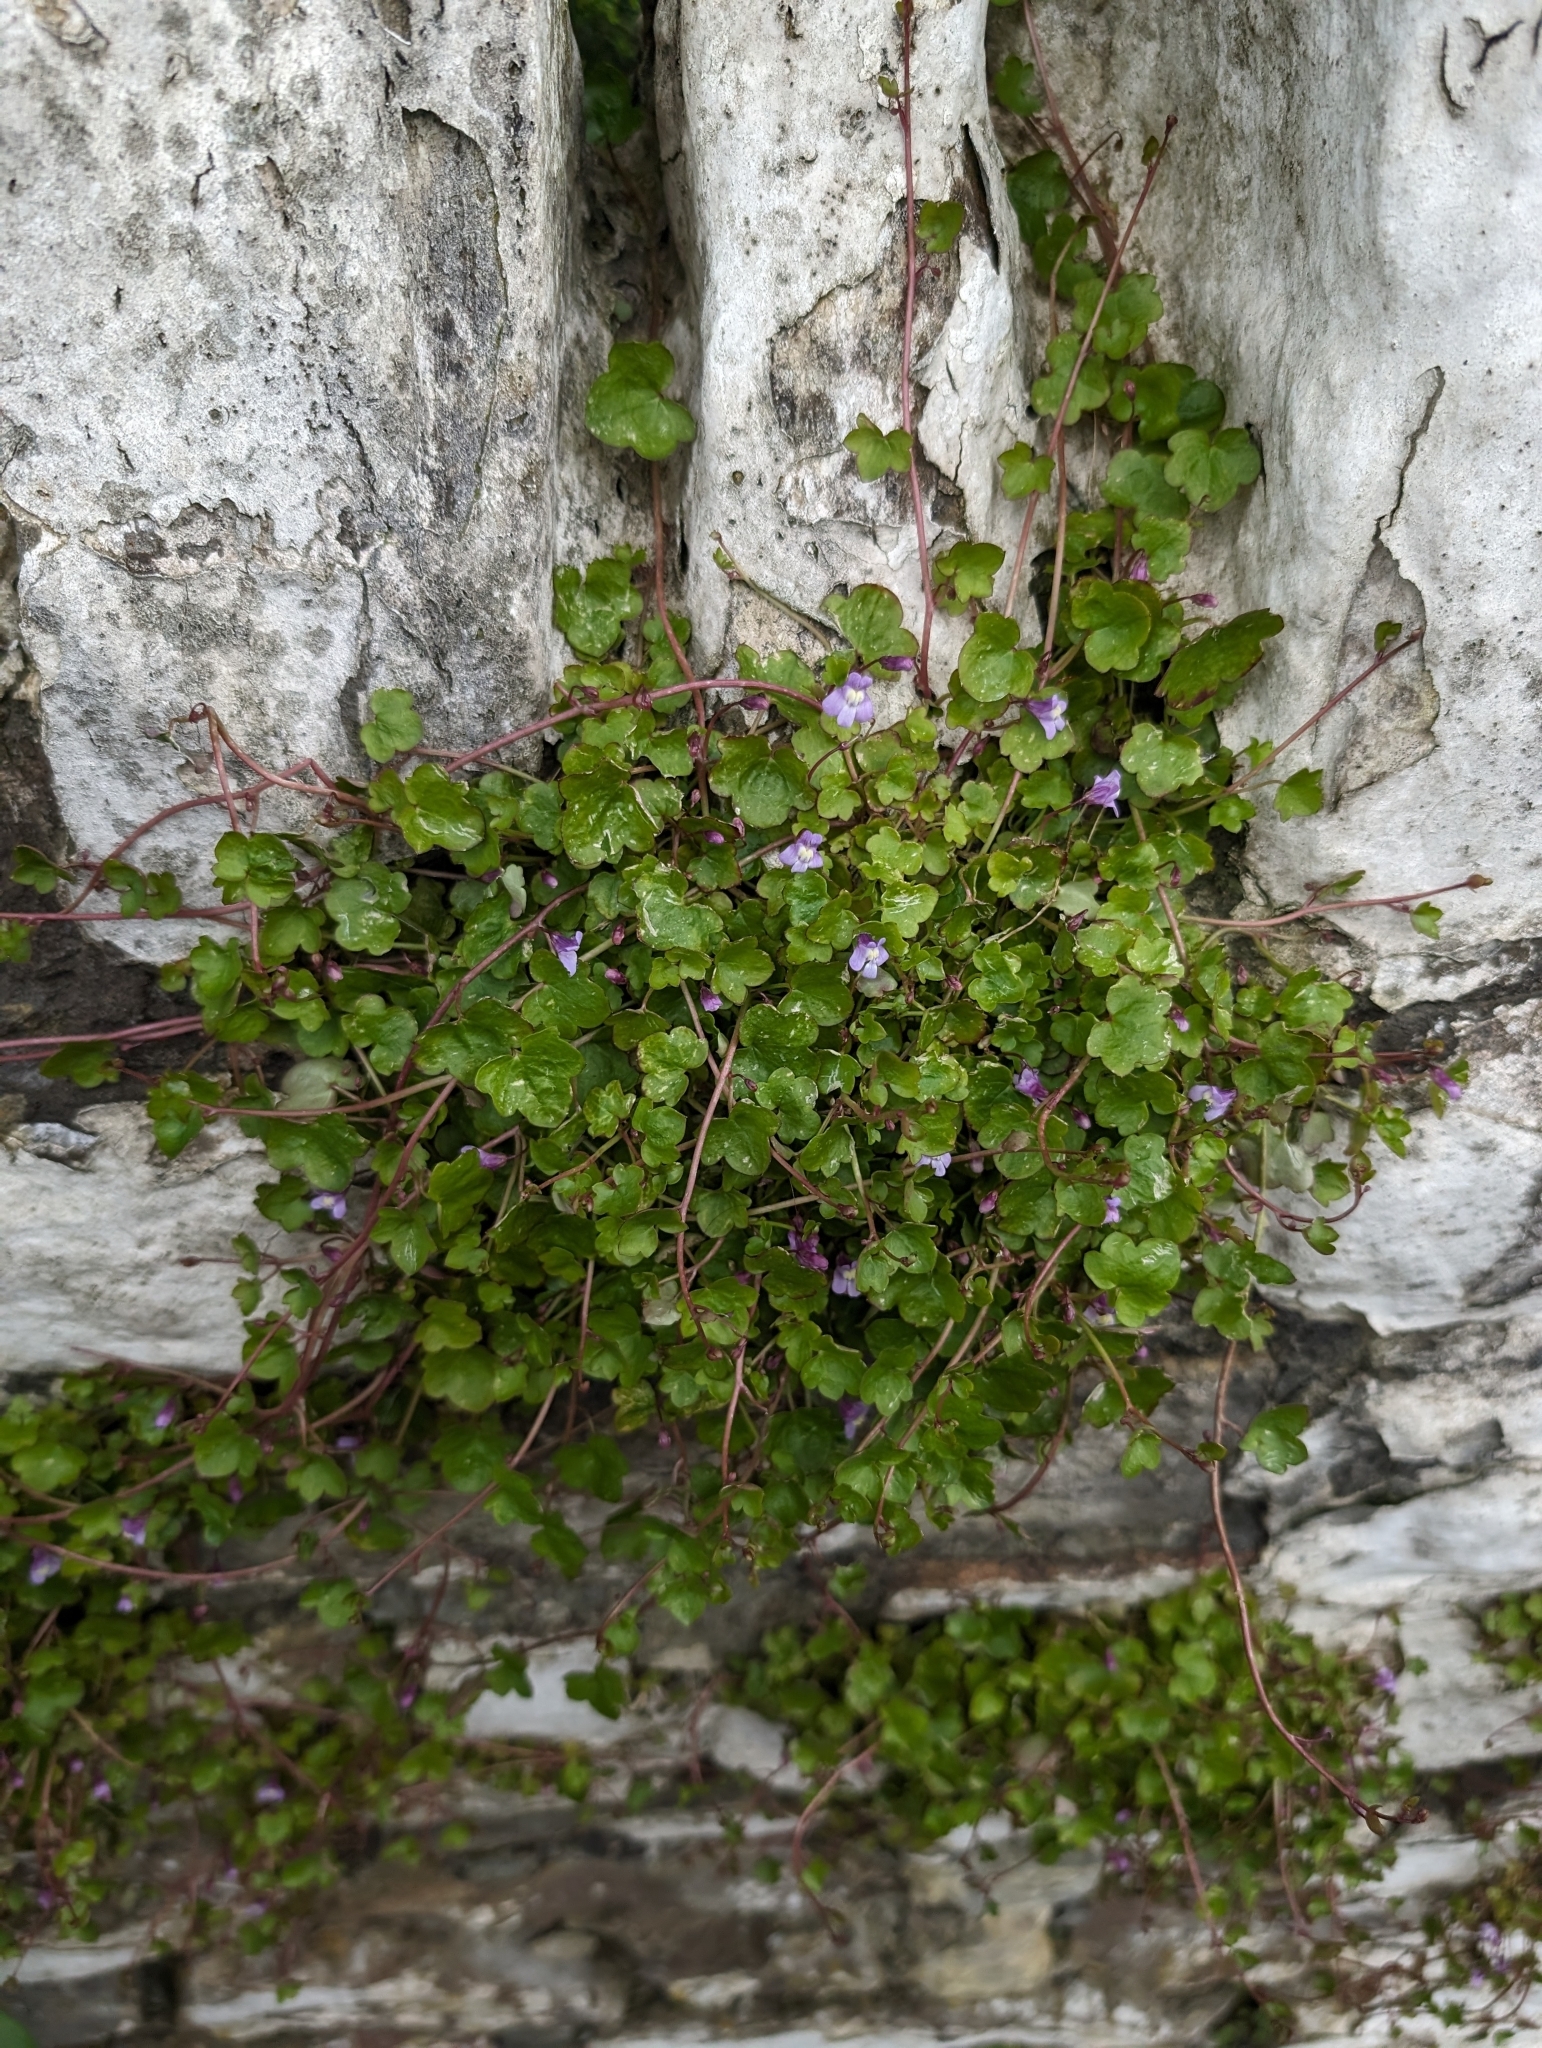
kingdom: Plantae
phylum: Tracheophyta
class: Magnoliopsida
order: Lamiales
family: Plantaginaceae
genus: Cymbalaria
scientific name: Cymbalaria muralis
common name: Ivy-leaved toadflax
